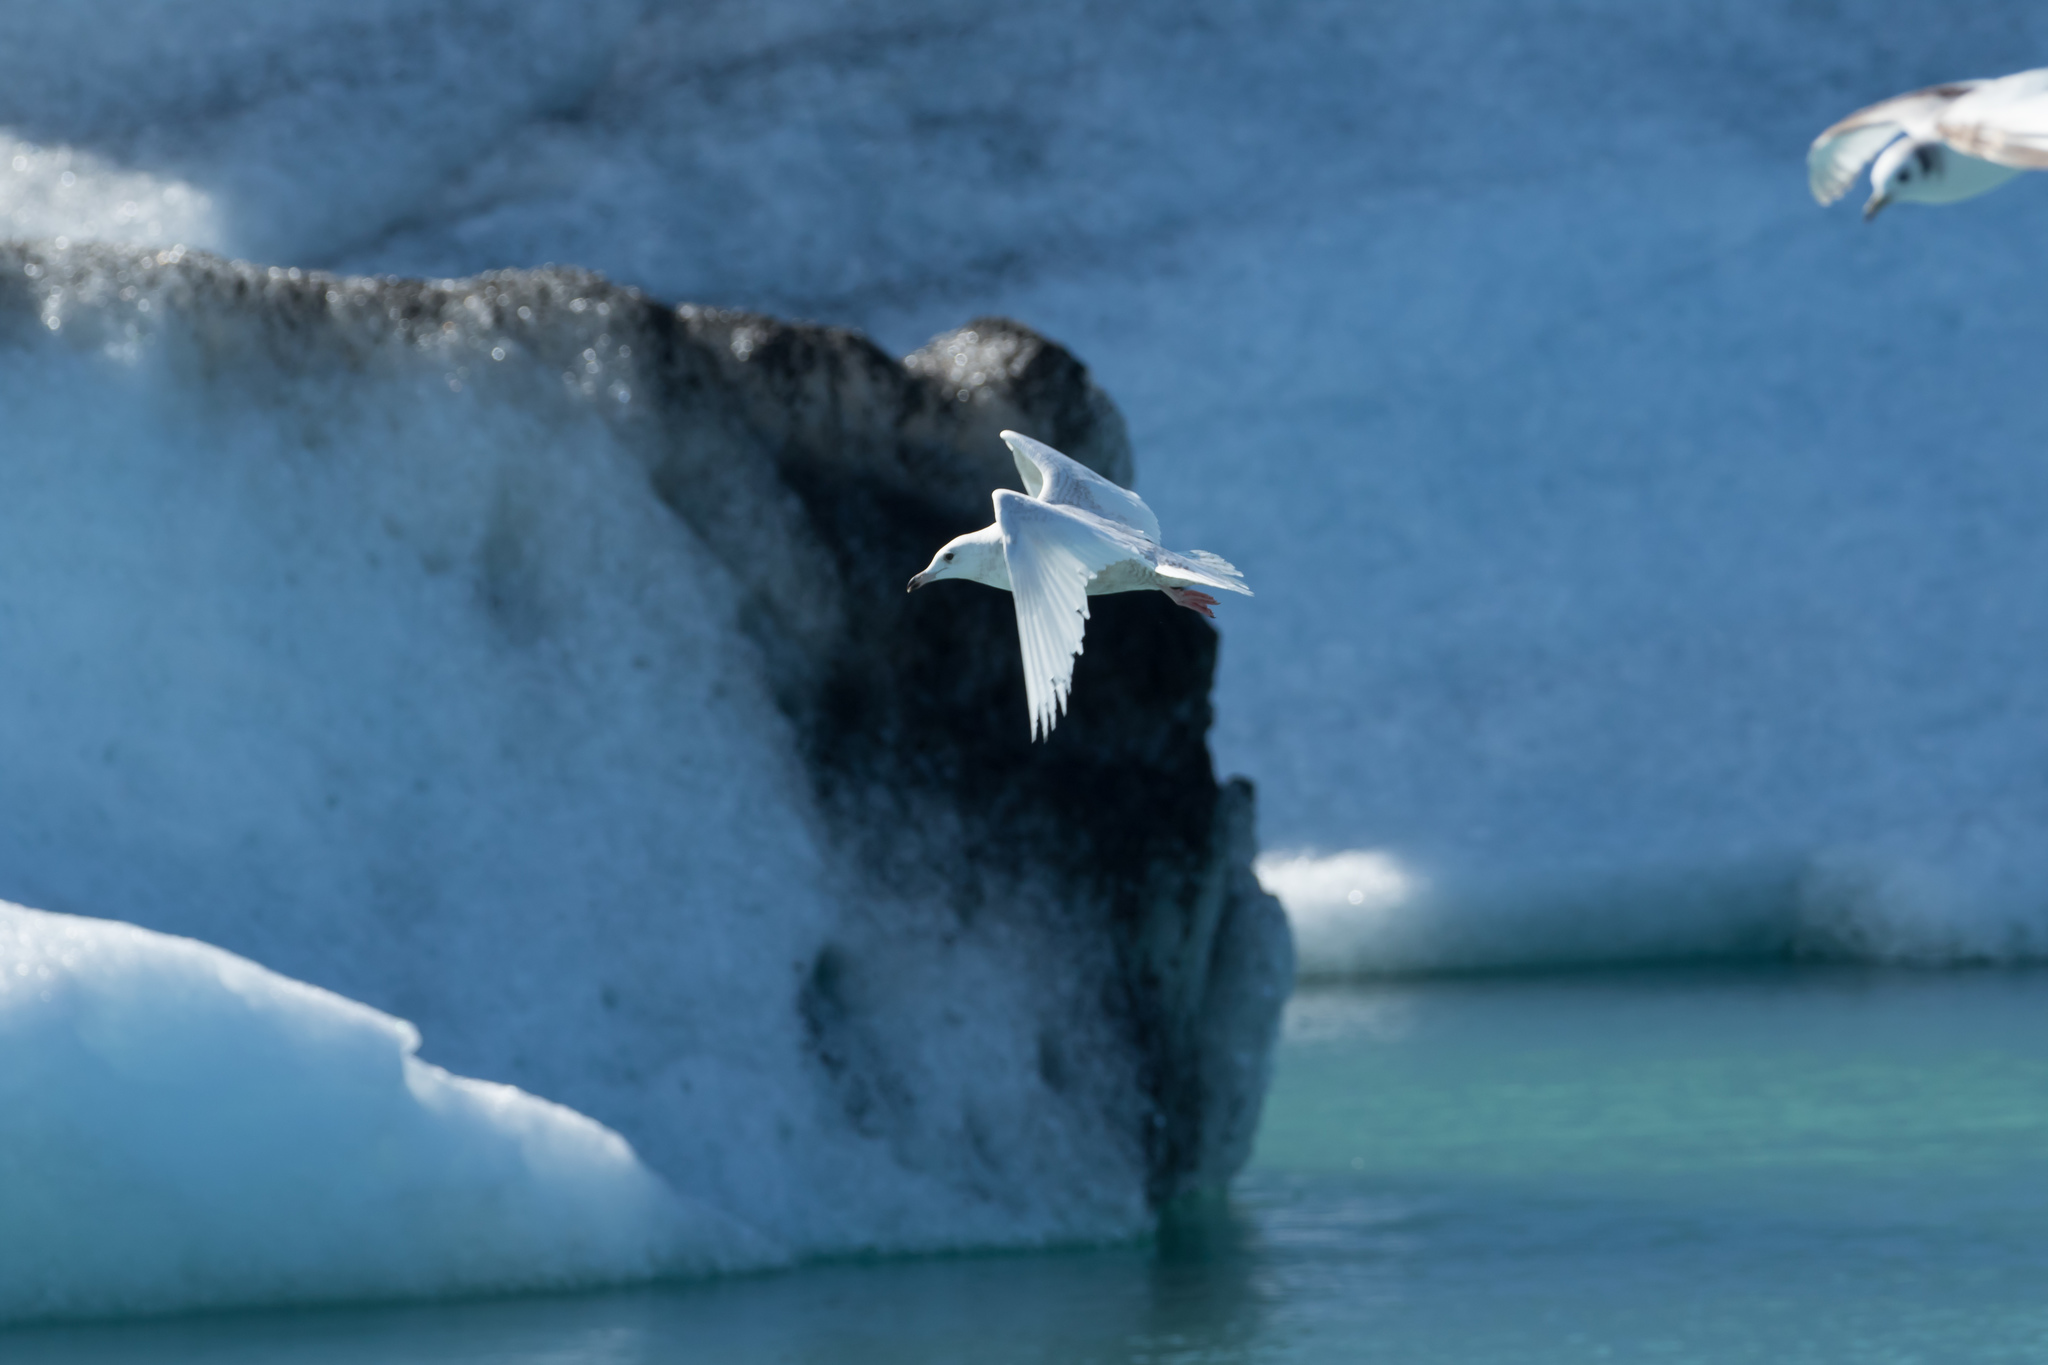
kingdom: Animalia
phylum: Chordata
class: Aves
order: Charadriiformes
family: Laridae
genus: Larus
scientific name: Larus glaucoides
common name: Iceland gull
